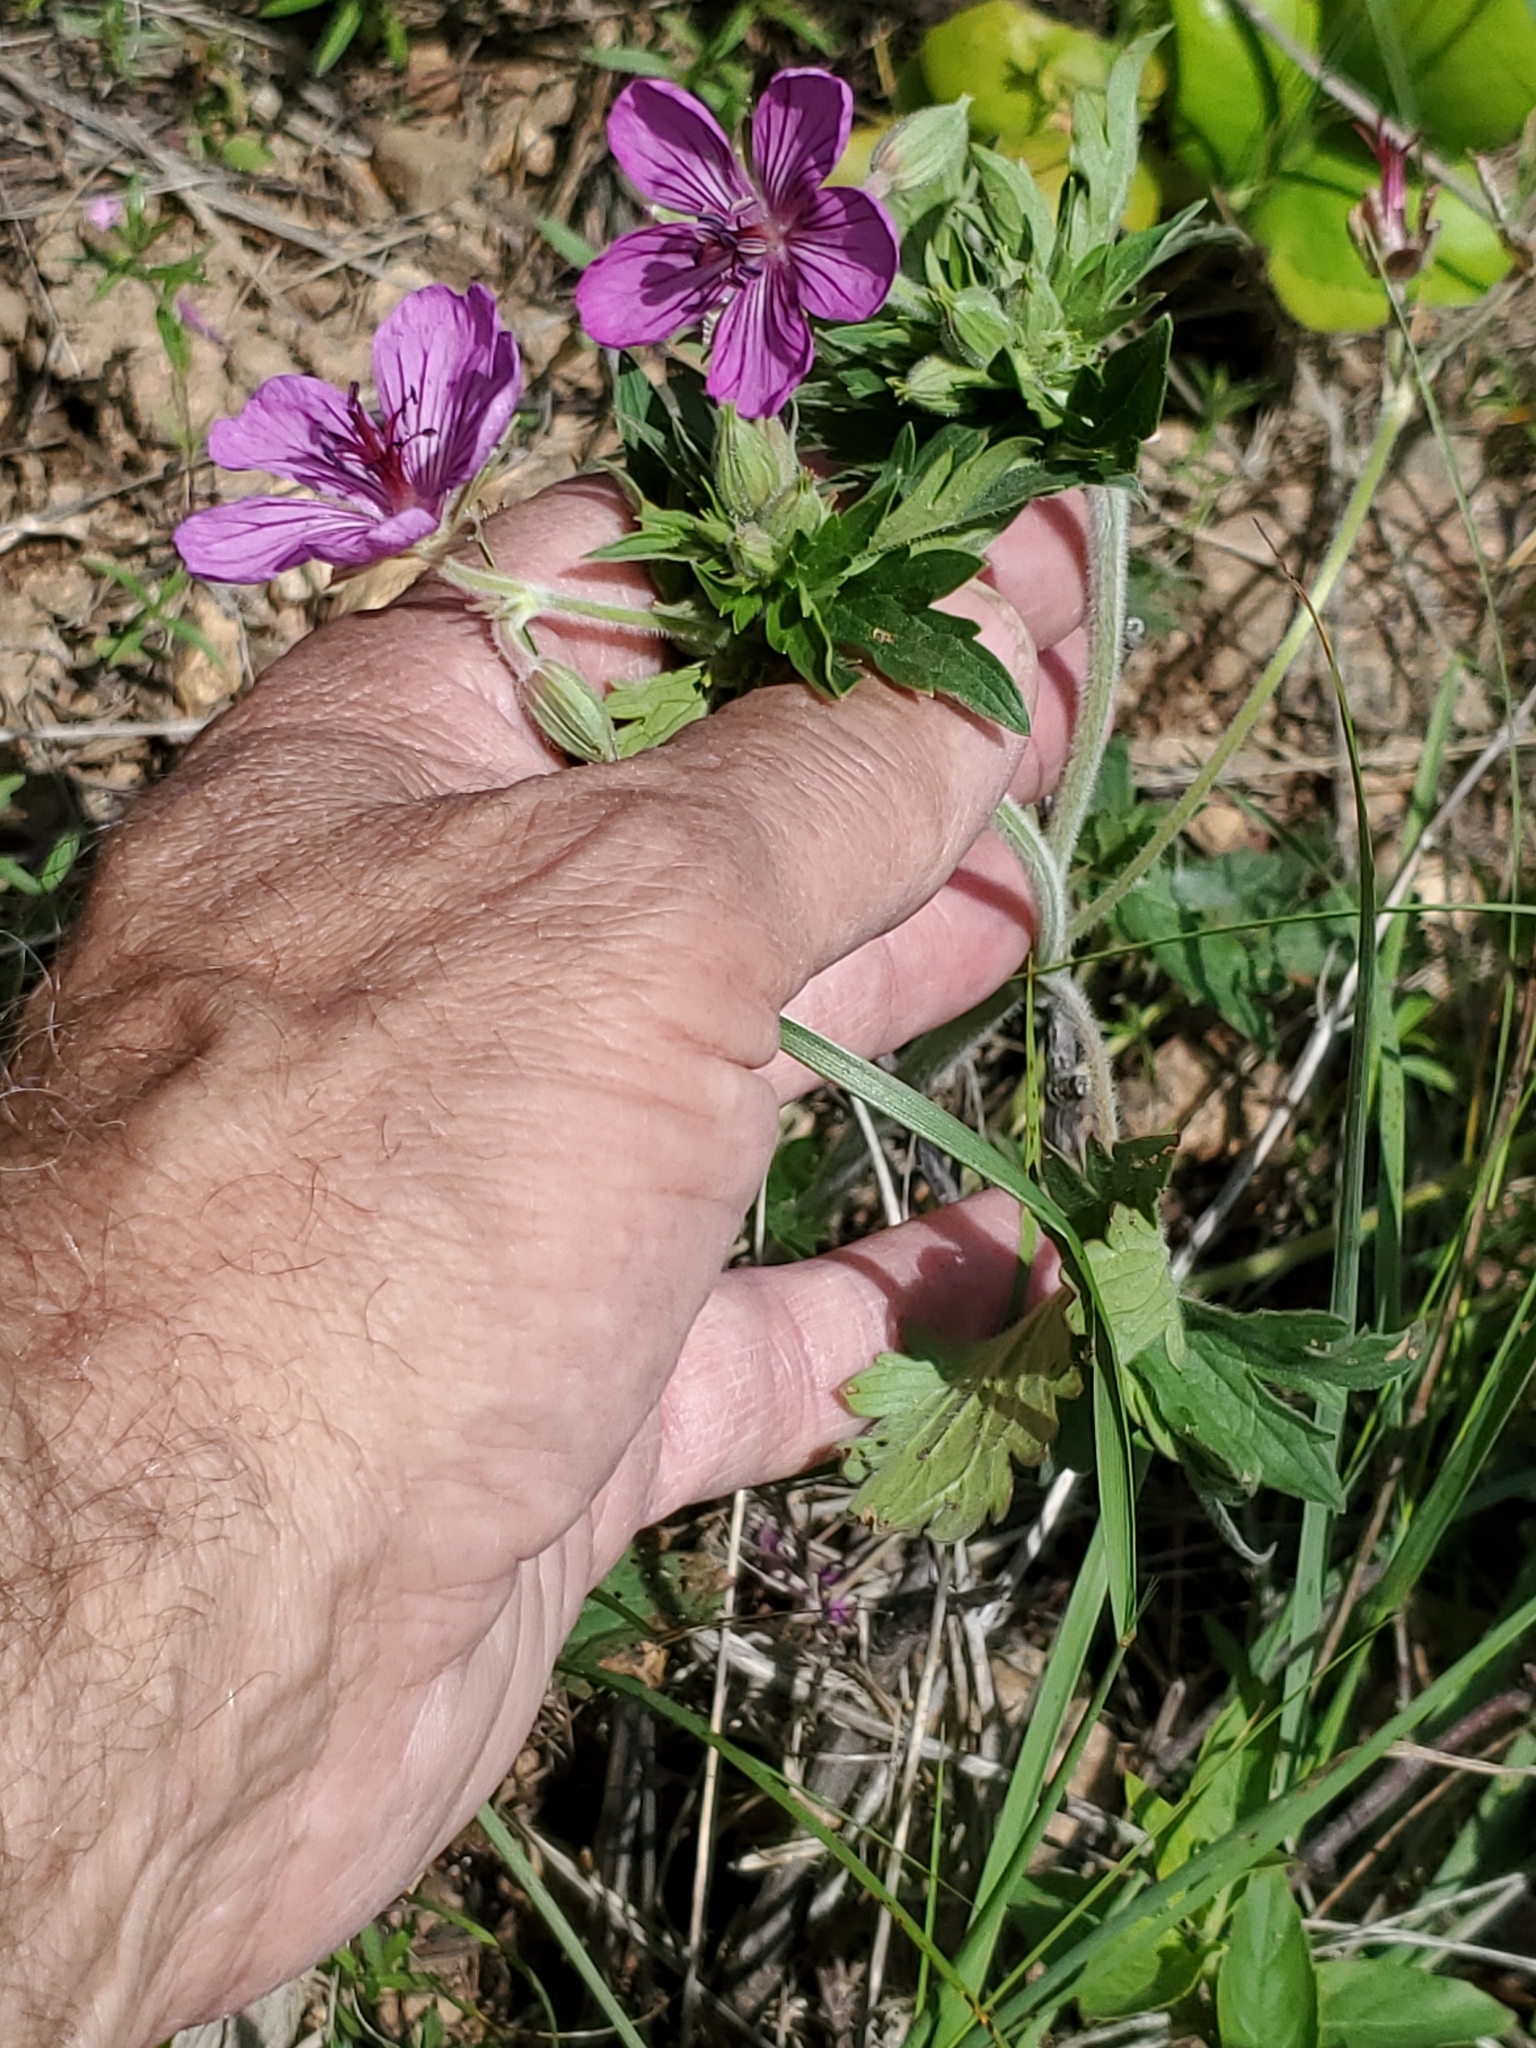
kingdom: Plantae
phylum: Tracheophyta
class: Magnoliopsida
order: Geraniales
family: Geraniaceae
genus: Geranium
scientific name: Geranium viscosissimum
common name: Purple geranium
